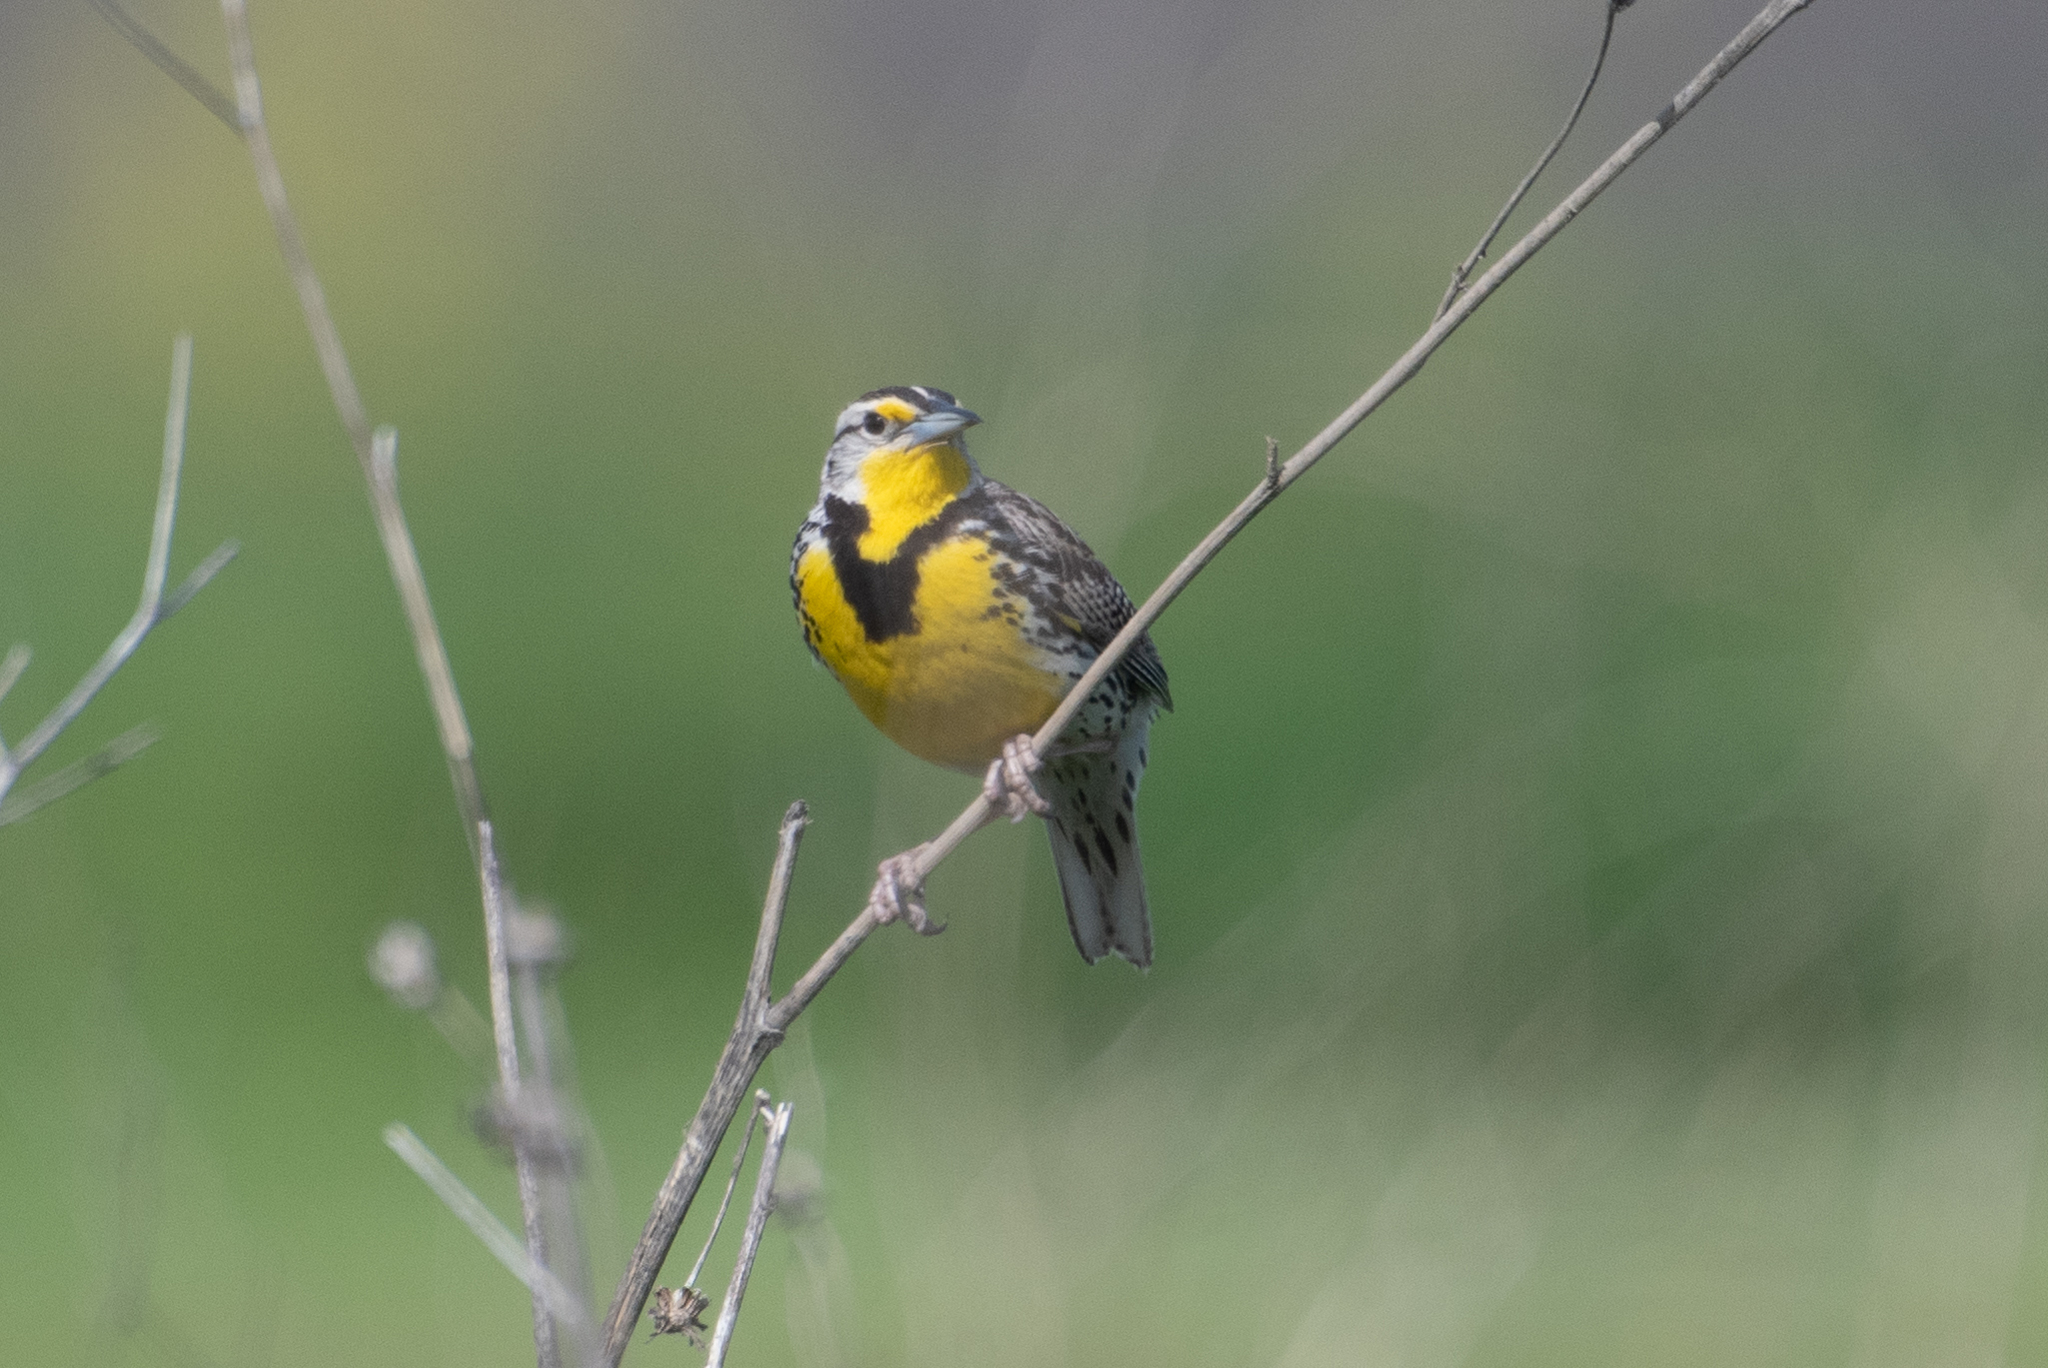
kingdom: Animalia
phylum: Chordata
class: Aves
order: Passeriformes
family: Icteridae
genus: Sturnella
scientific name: Sturnella neglecta
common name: Western meadowlark
